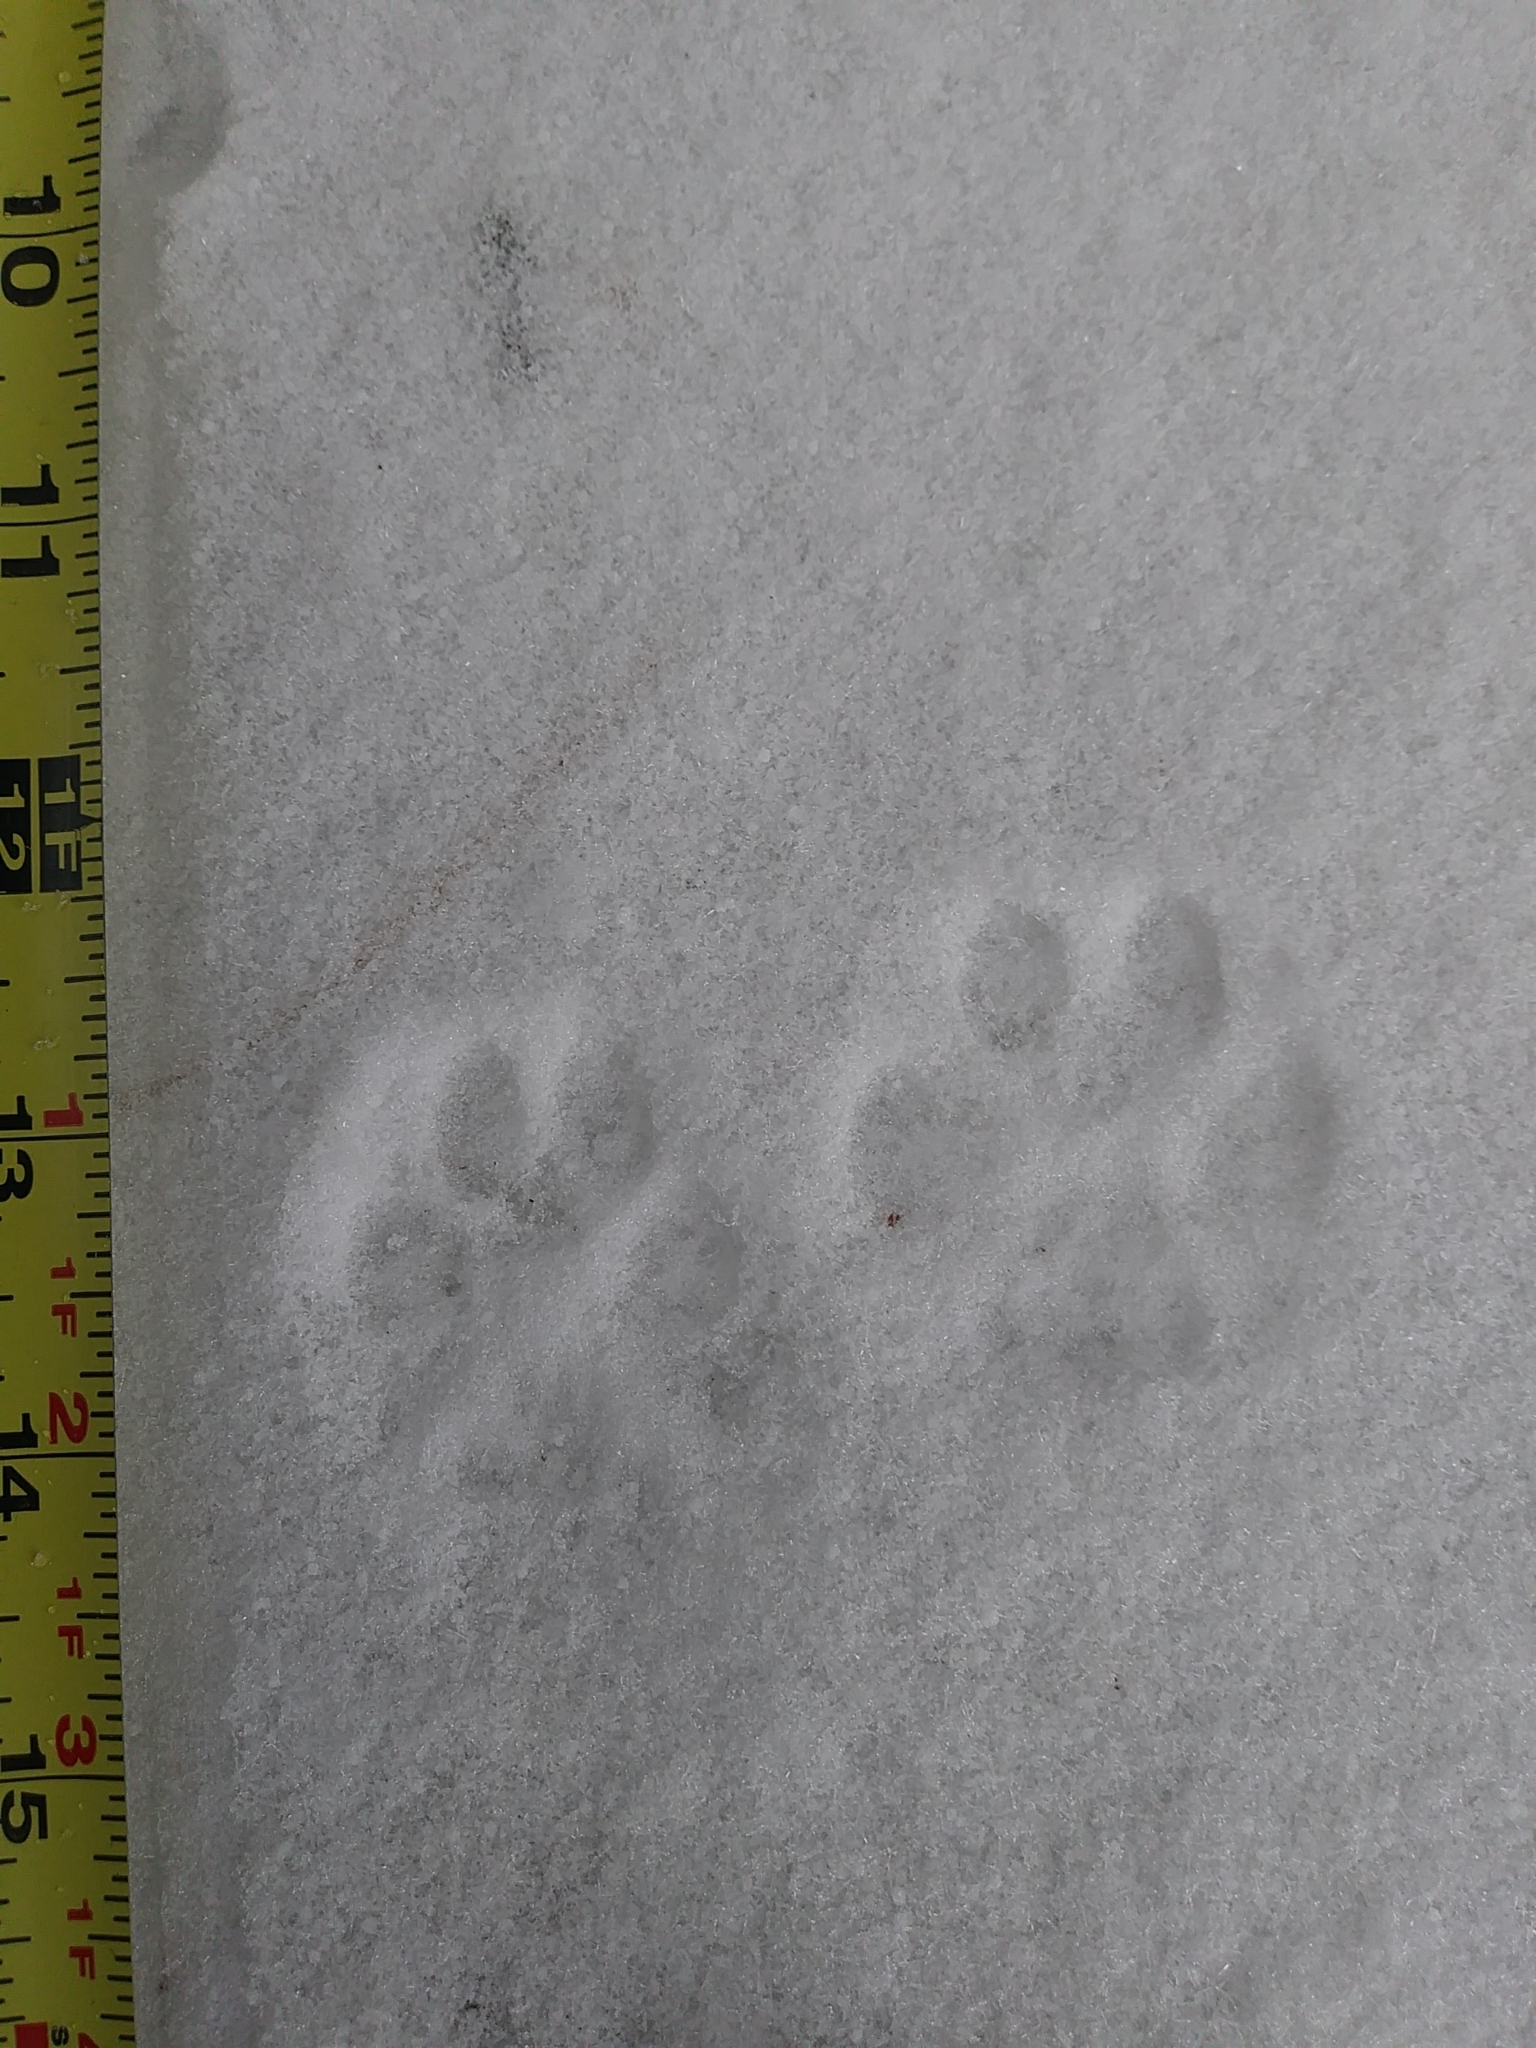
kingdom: Animalia
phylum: Chordata
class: Mammalia
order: Carnivora
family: Canidae
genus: Urocyon
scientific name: Urocyon cinereoargenteus
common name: Gray fox
